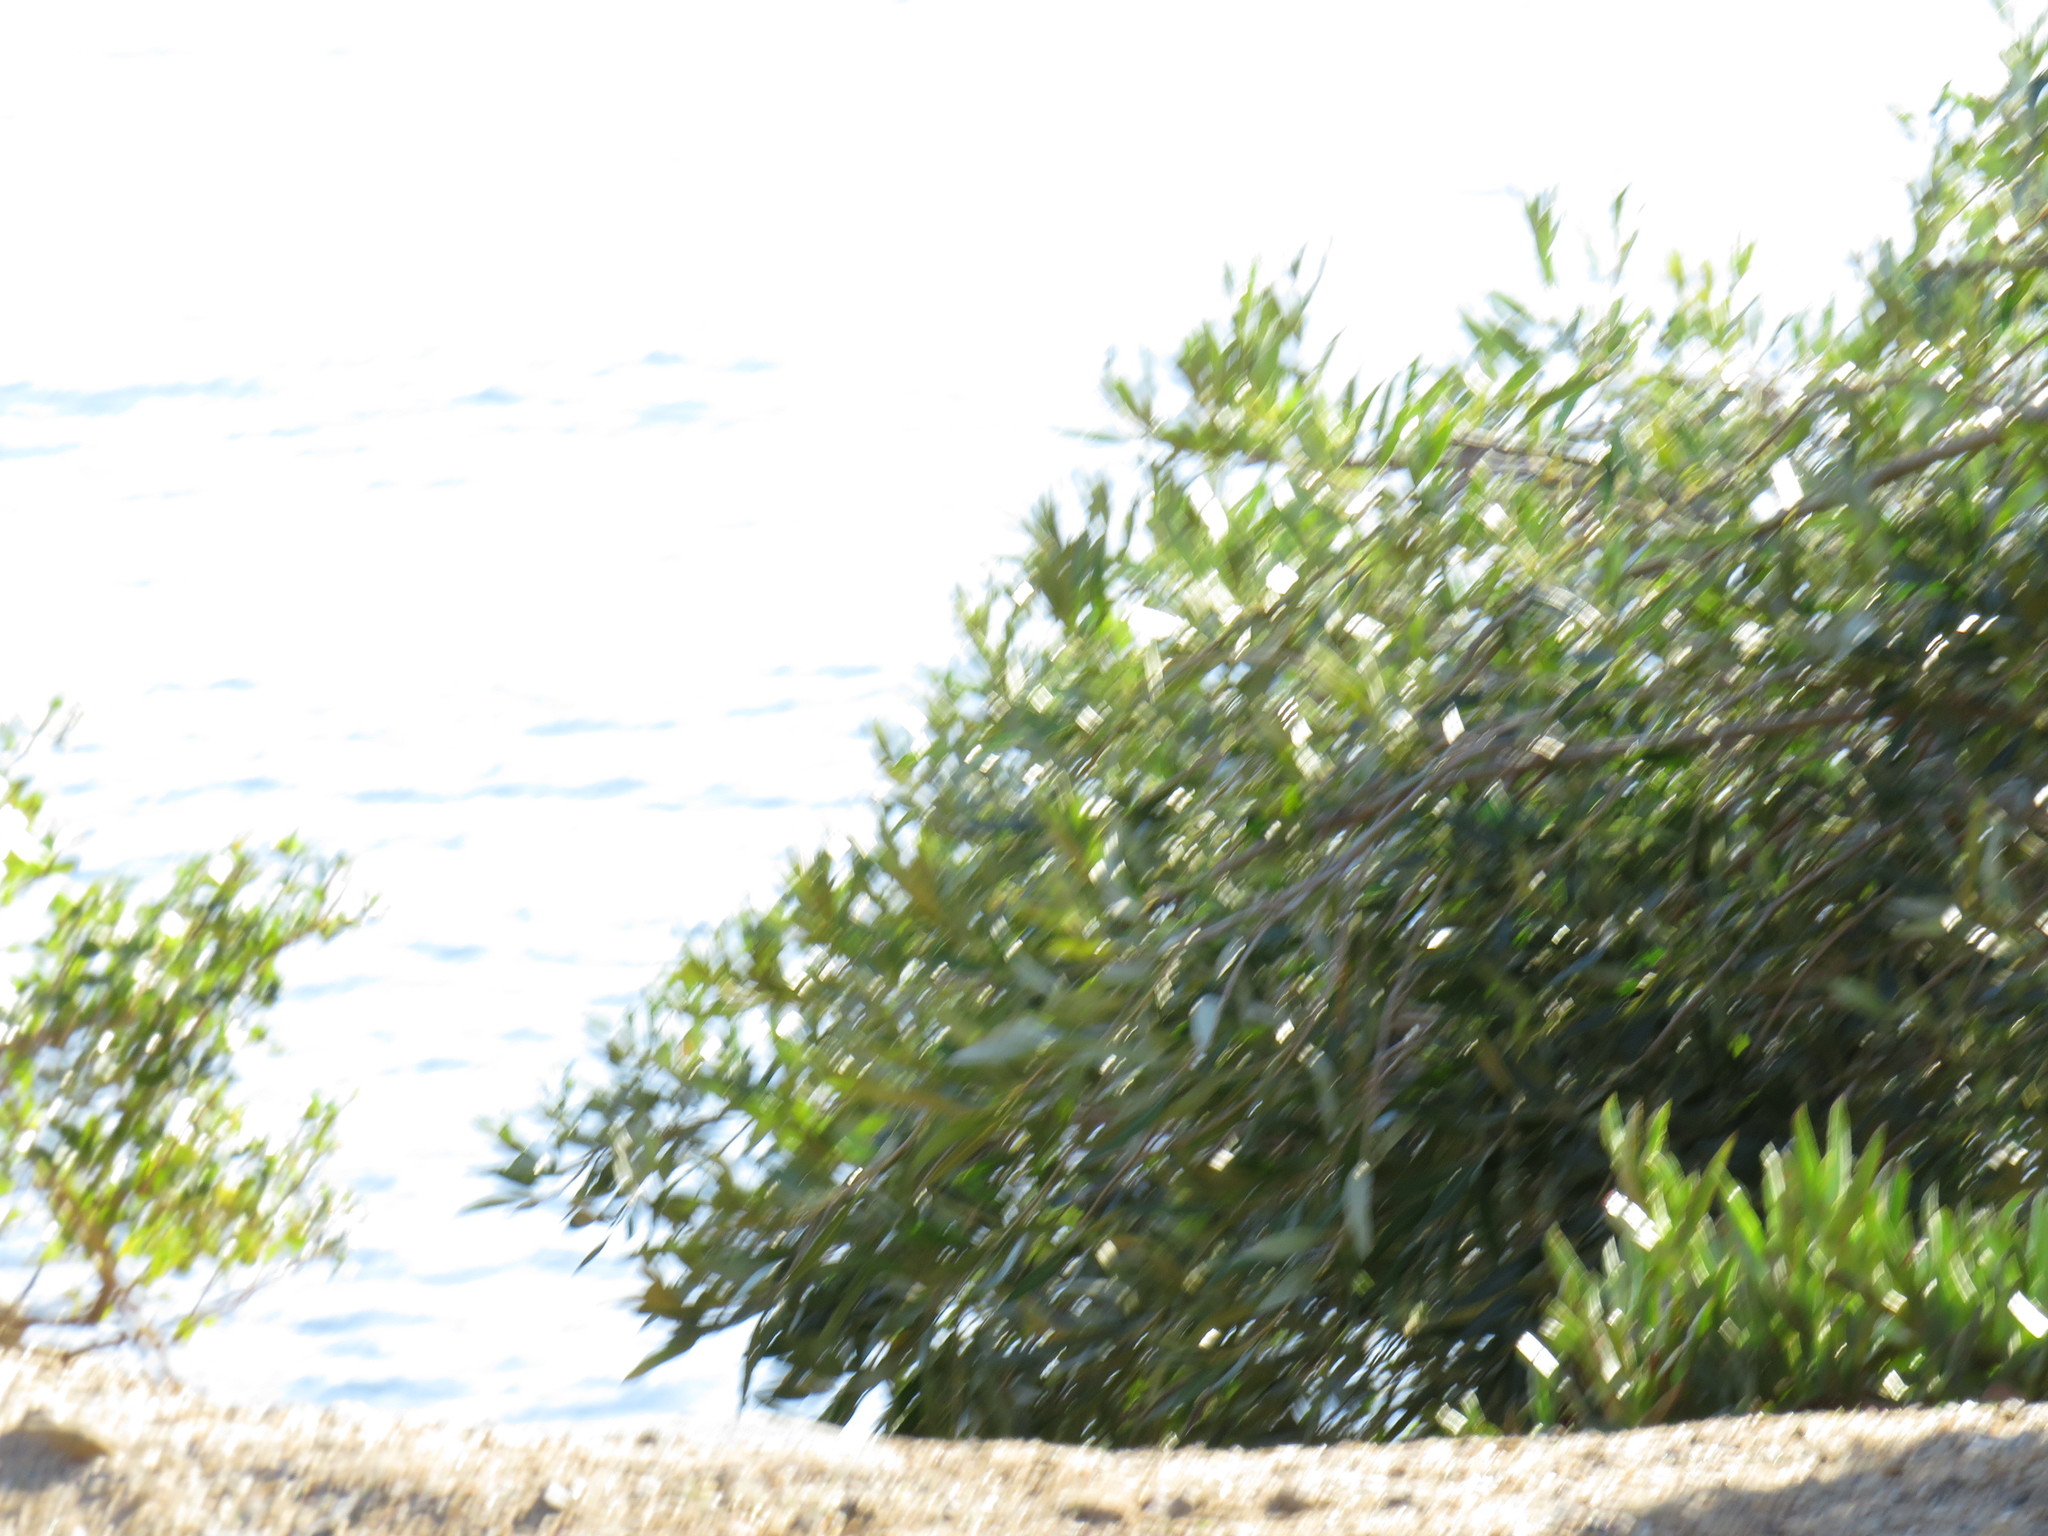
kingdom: Plantae
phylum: Tracheophyta
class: Magnoliopsida
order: Lamiales
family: Oleaceae
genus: Olea
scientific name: Olea europaea
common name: Olive
